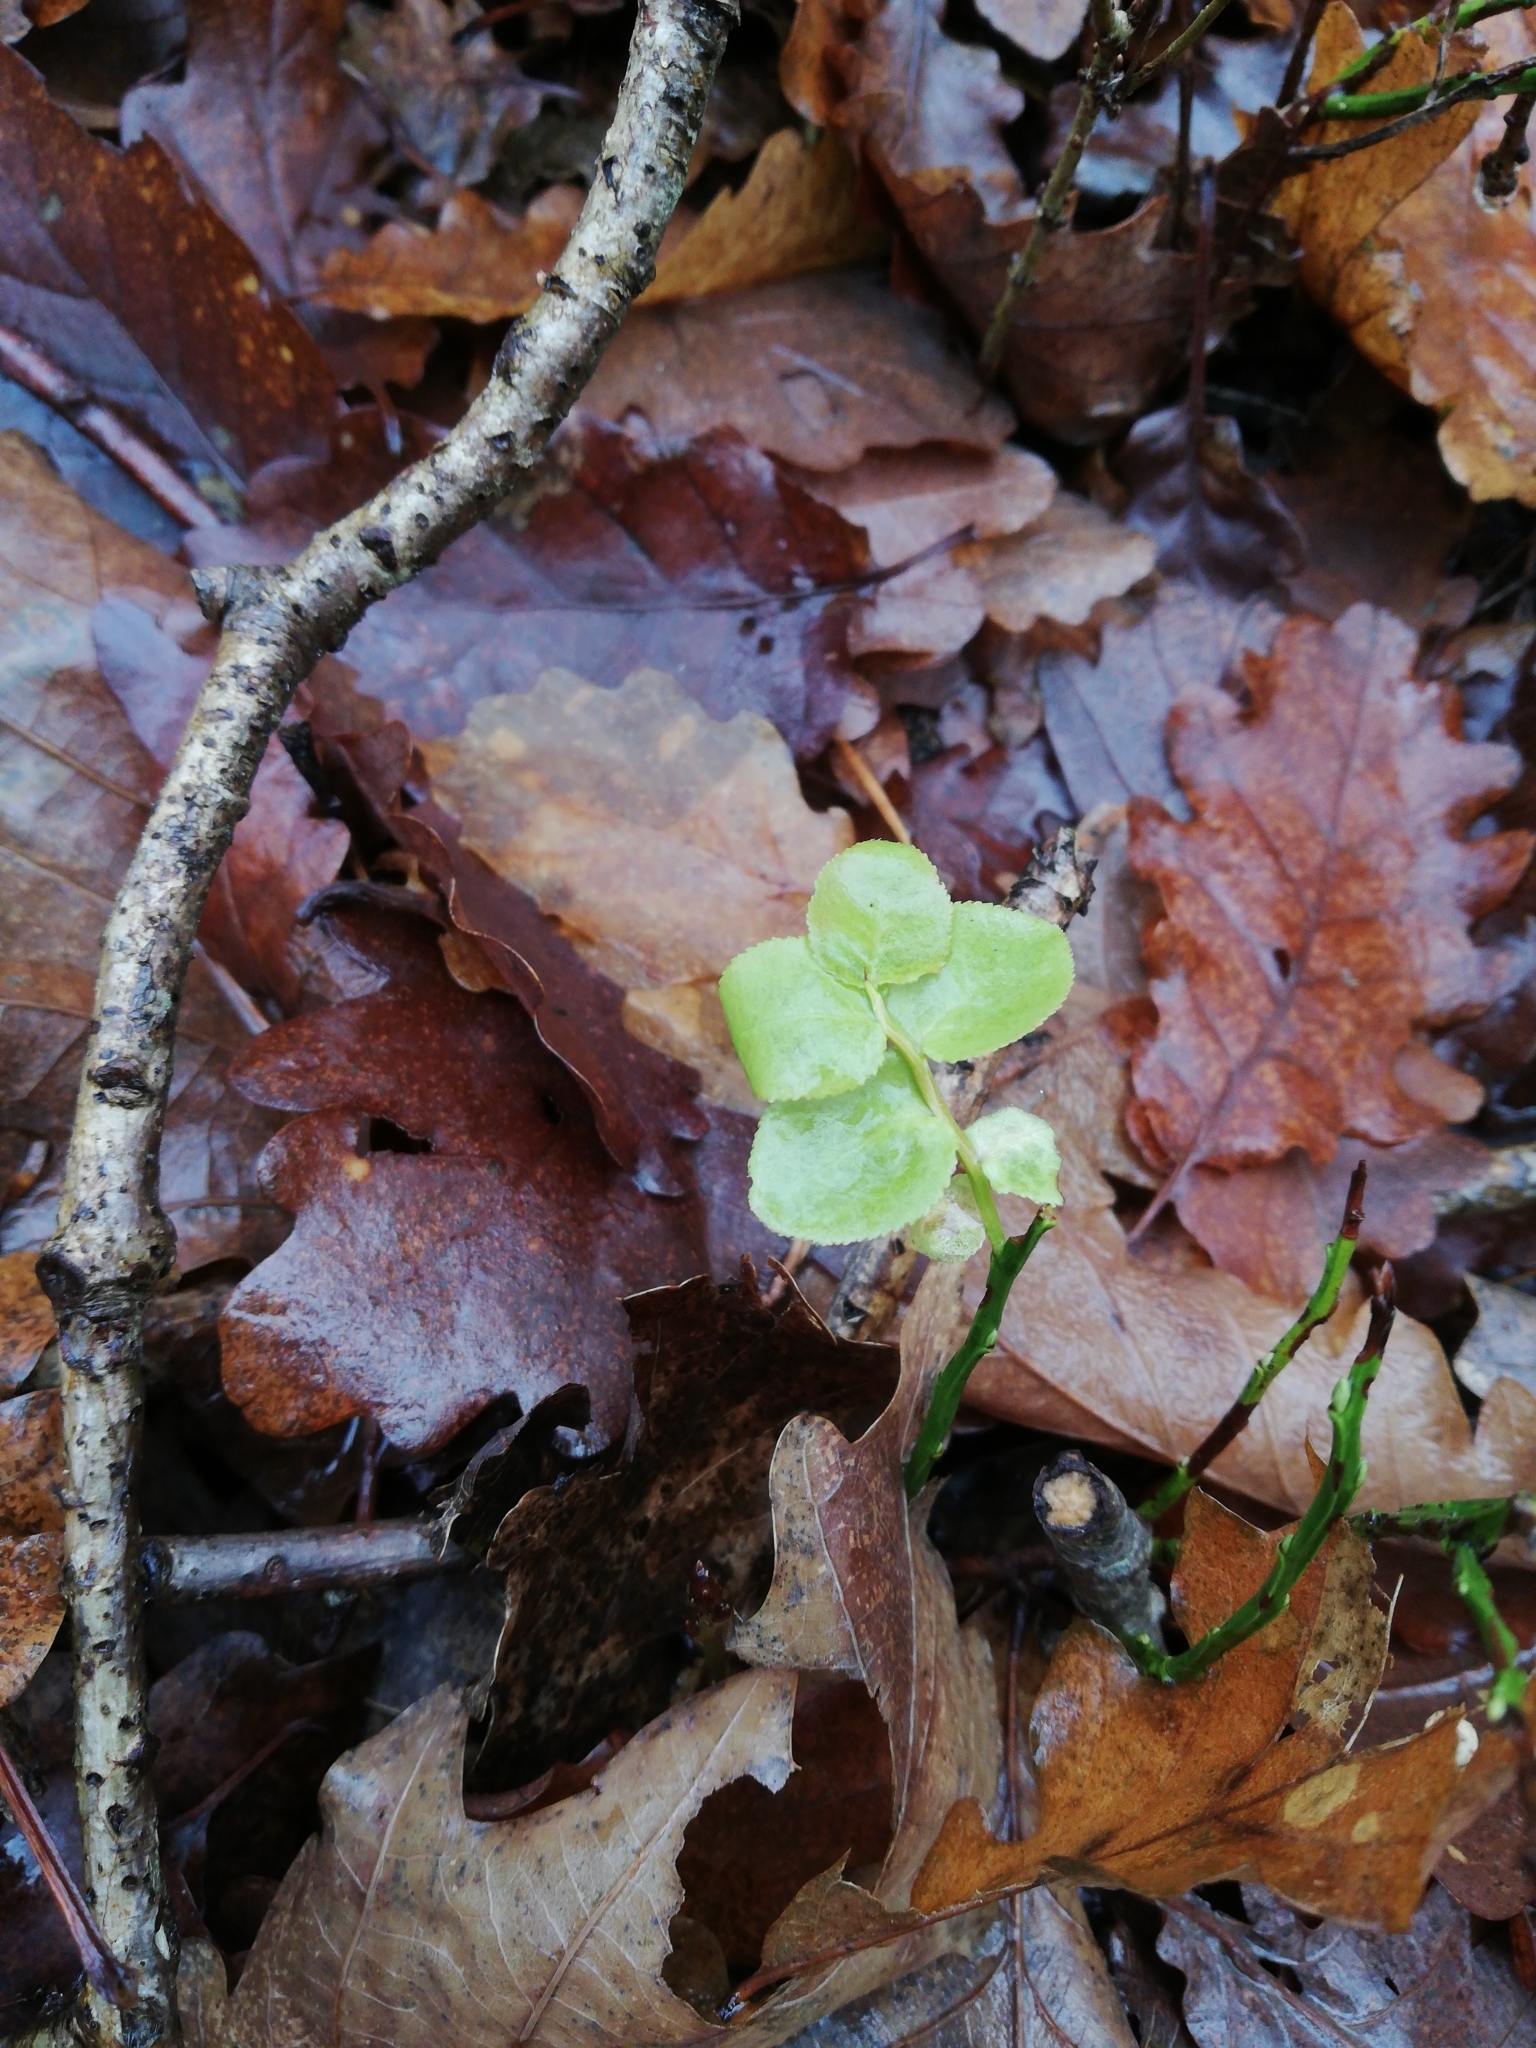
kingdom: Plantae
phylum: Tracheophyta
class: Magnoliopsida
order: Ericales
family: Ericaceae
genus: Vaccinium
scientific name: Vaccinium myrtillus
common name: Bilberry
